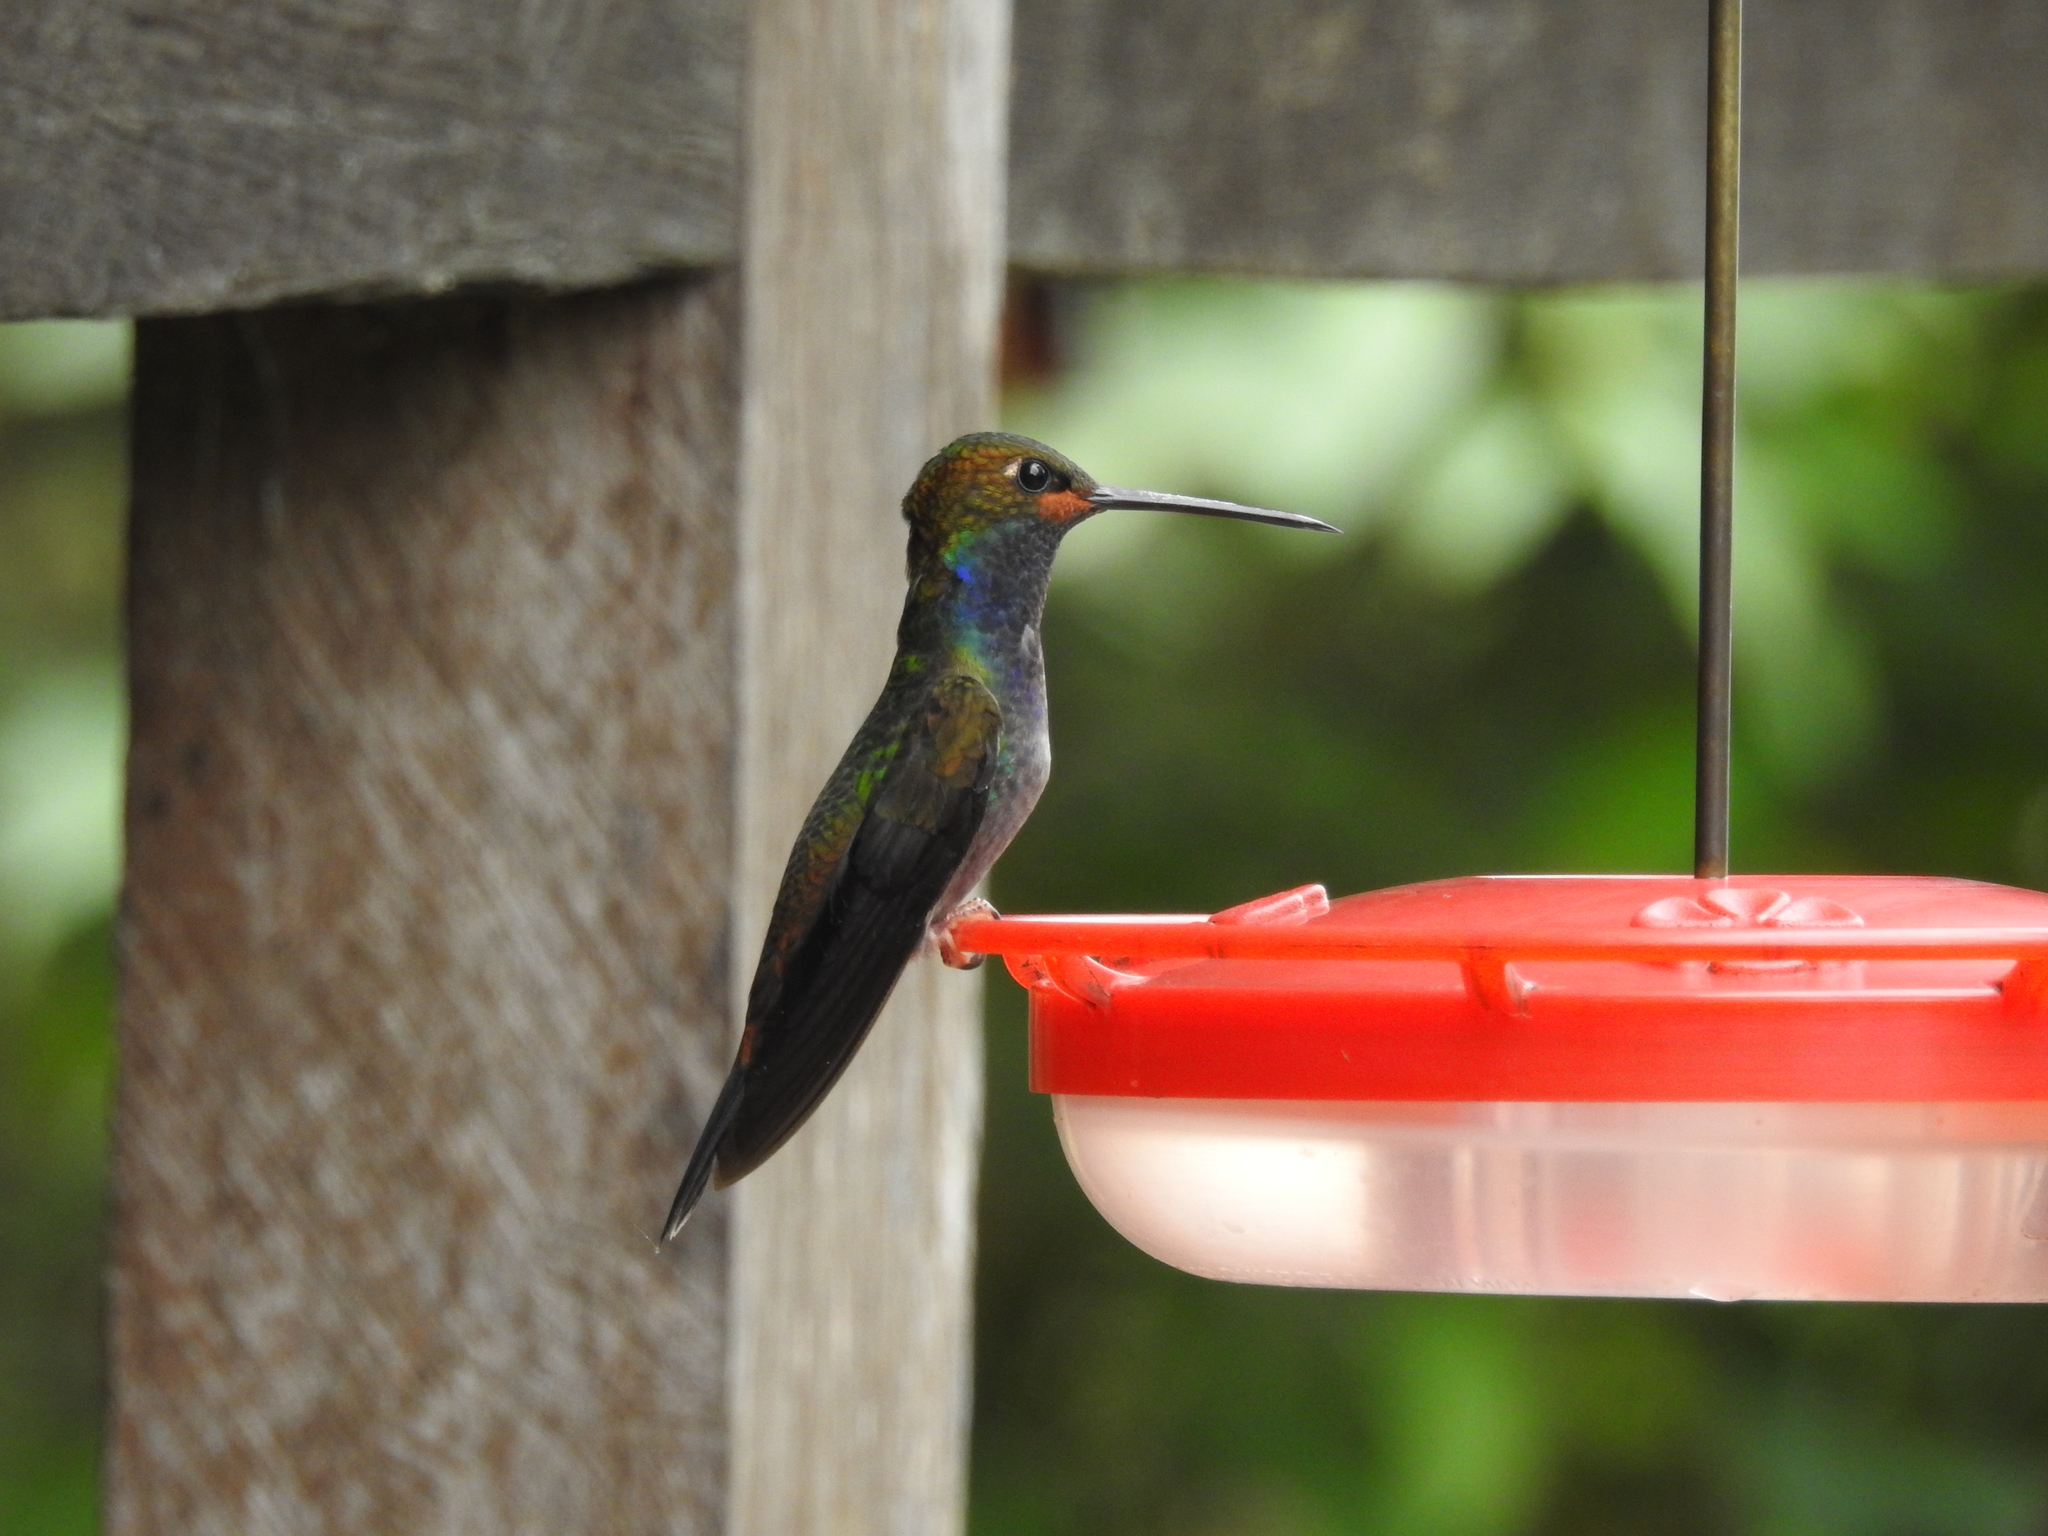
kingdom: Animalia
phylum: Chordata
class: Aves
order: Apodiformes
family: Trochilidae
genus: Urochroa
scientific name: Urochroa bougueri
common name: White-tailed hillstar
